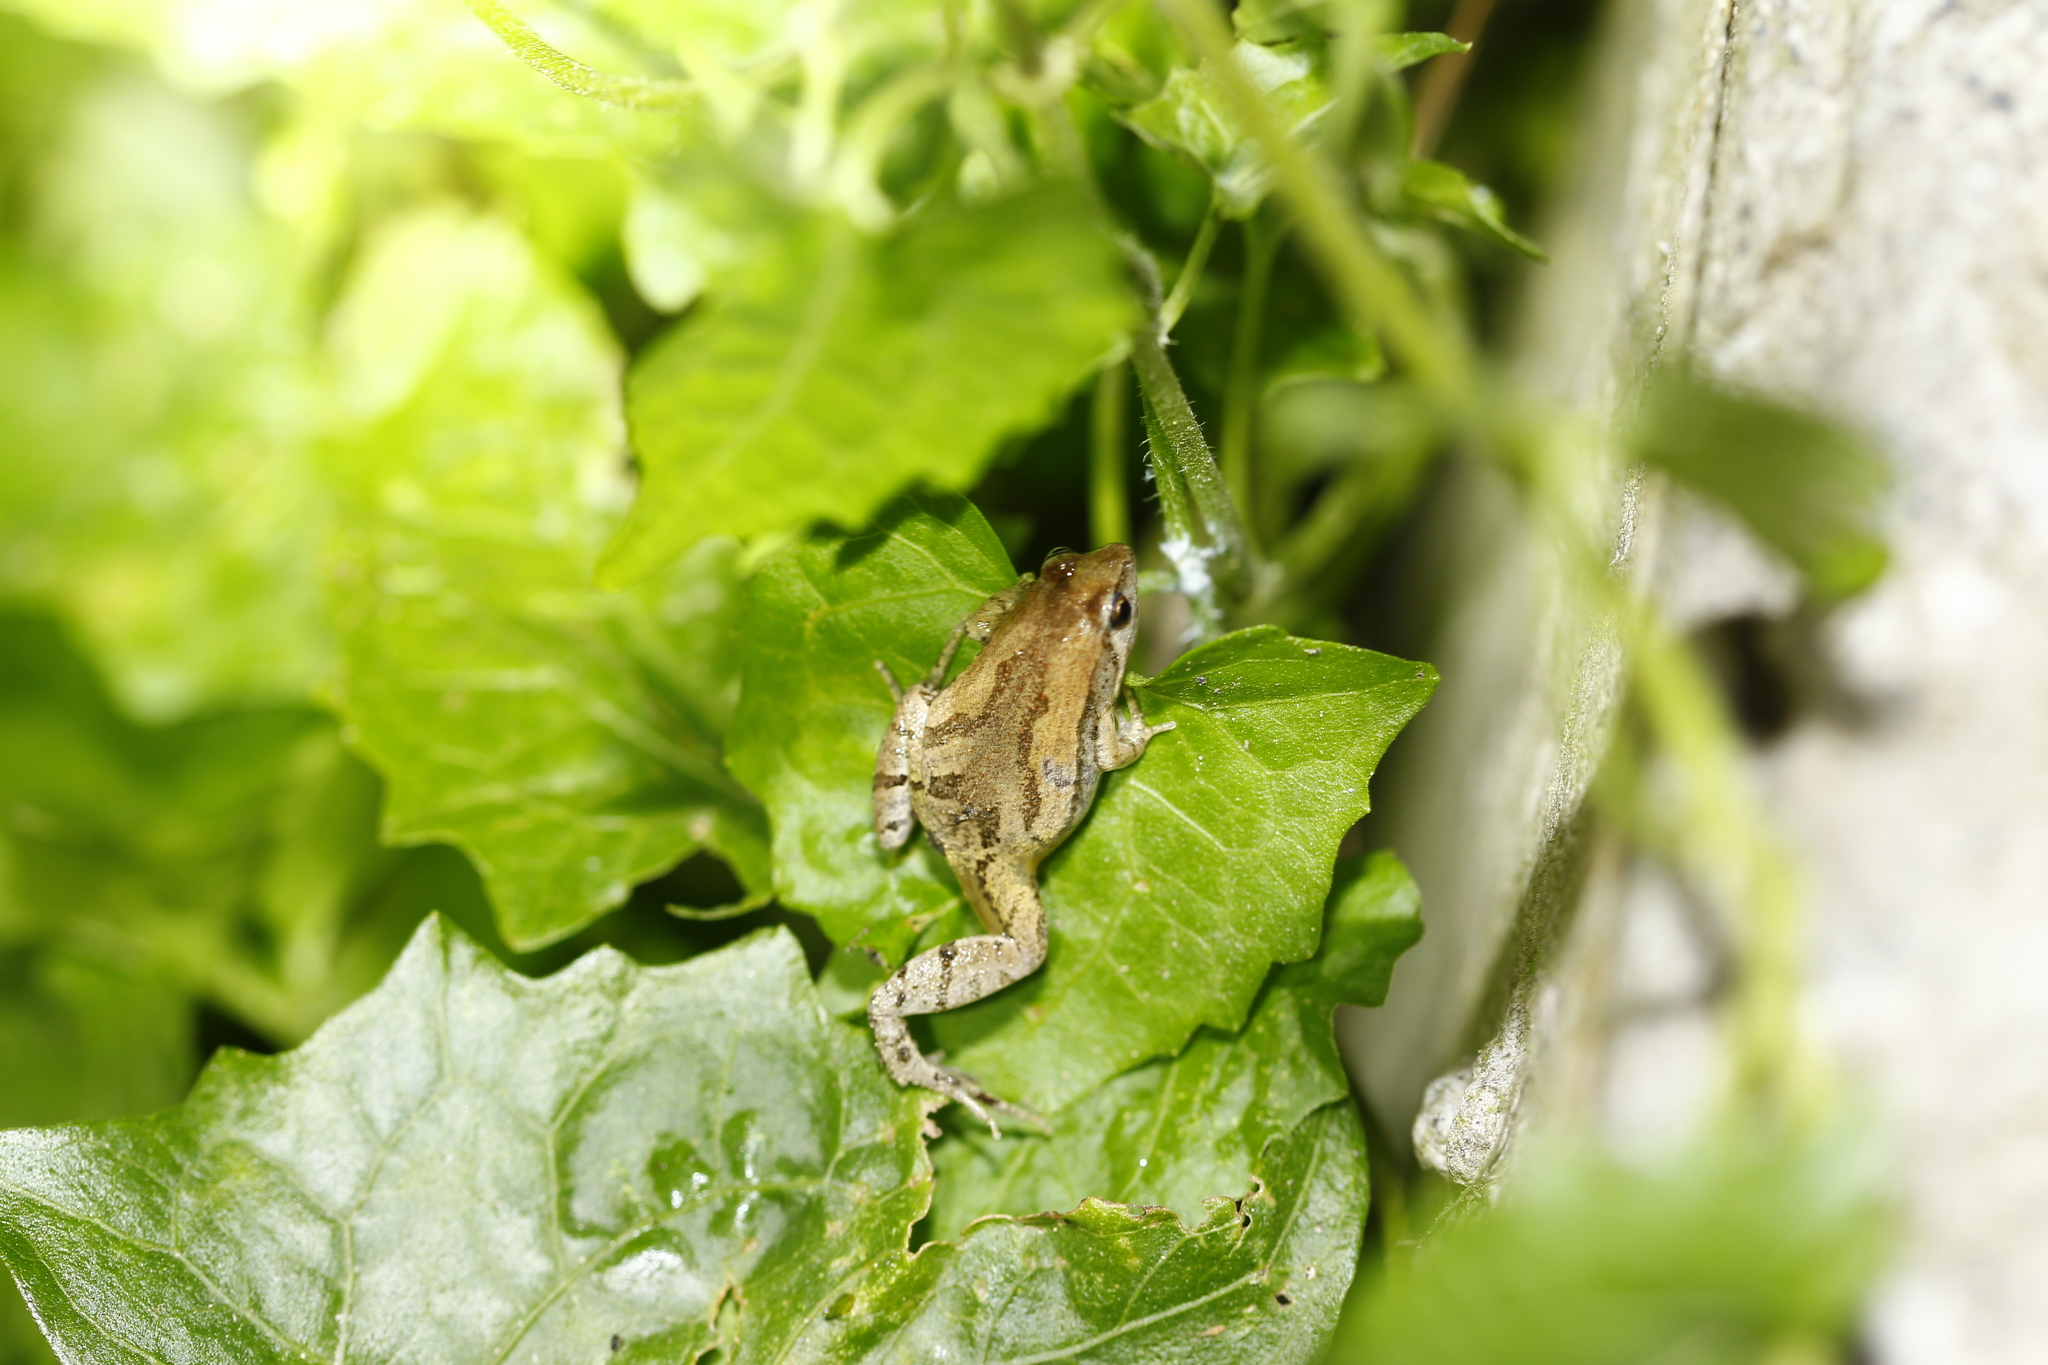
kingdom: Animalia
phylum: Chordata
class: Amphibia
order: Anura
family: Microhylidae
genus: Microhyla
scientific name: Microhyla fissipes
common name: Ornate narrow-mouthed frog
